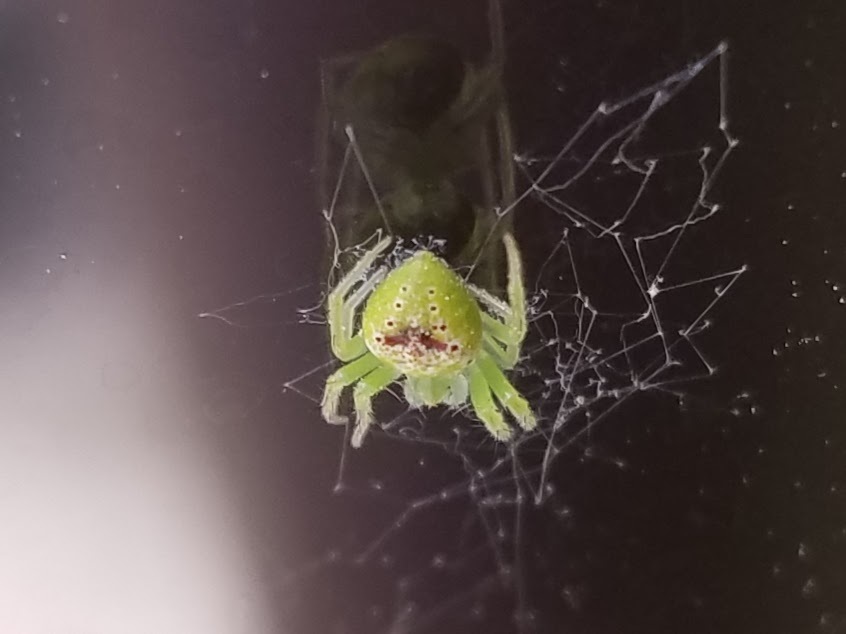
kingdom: Animalia
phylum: Arthropoda
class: Arachnida
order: Araneae
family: Araneidae
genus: Araneus
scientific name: Araneus cingulatus
